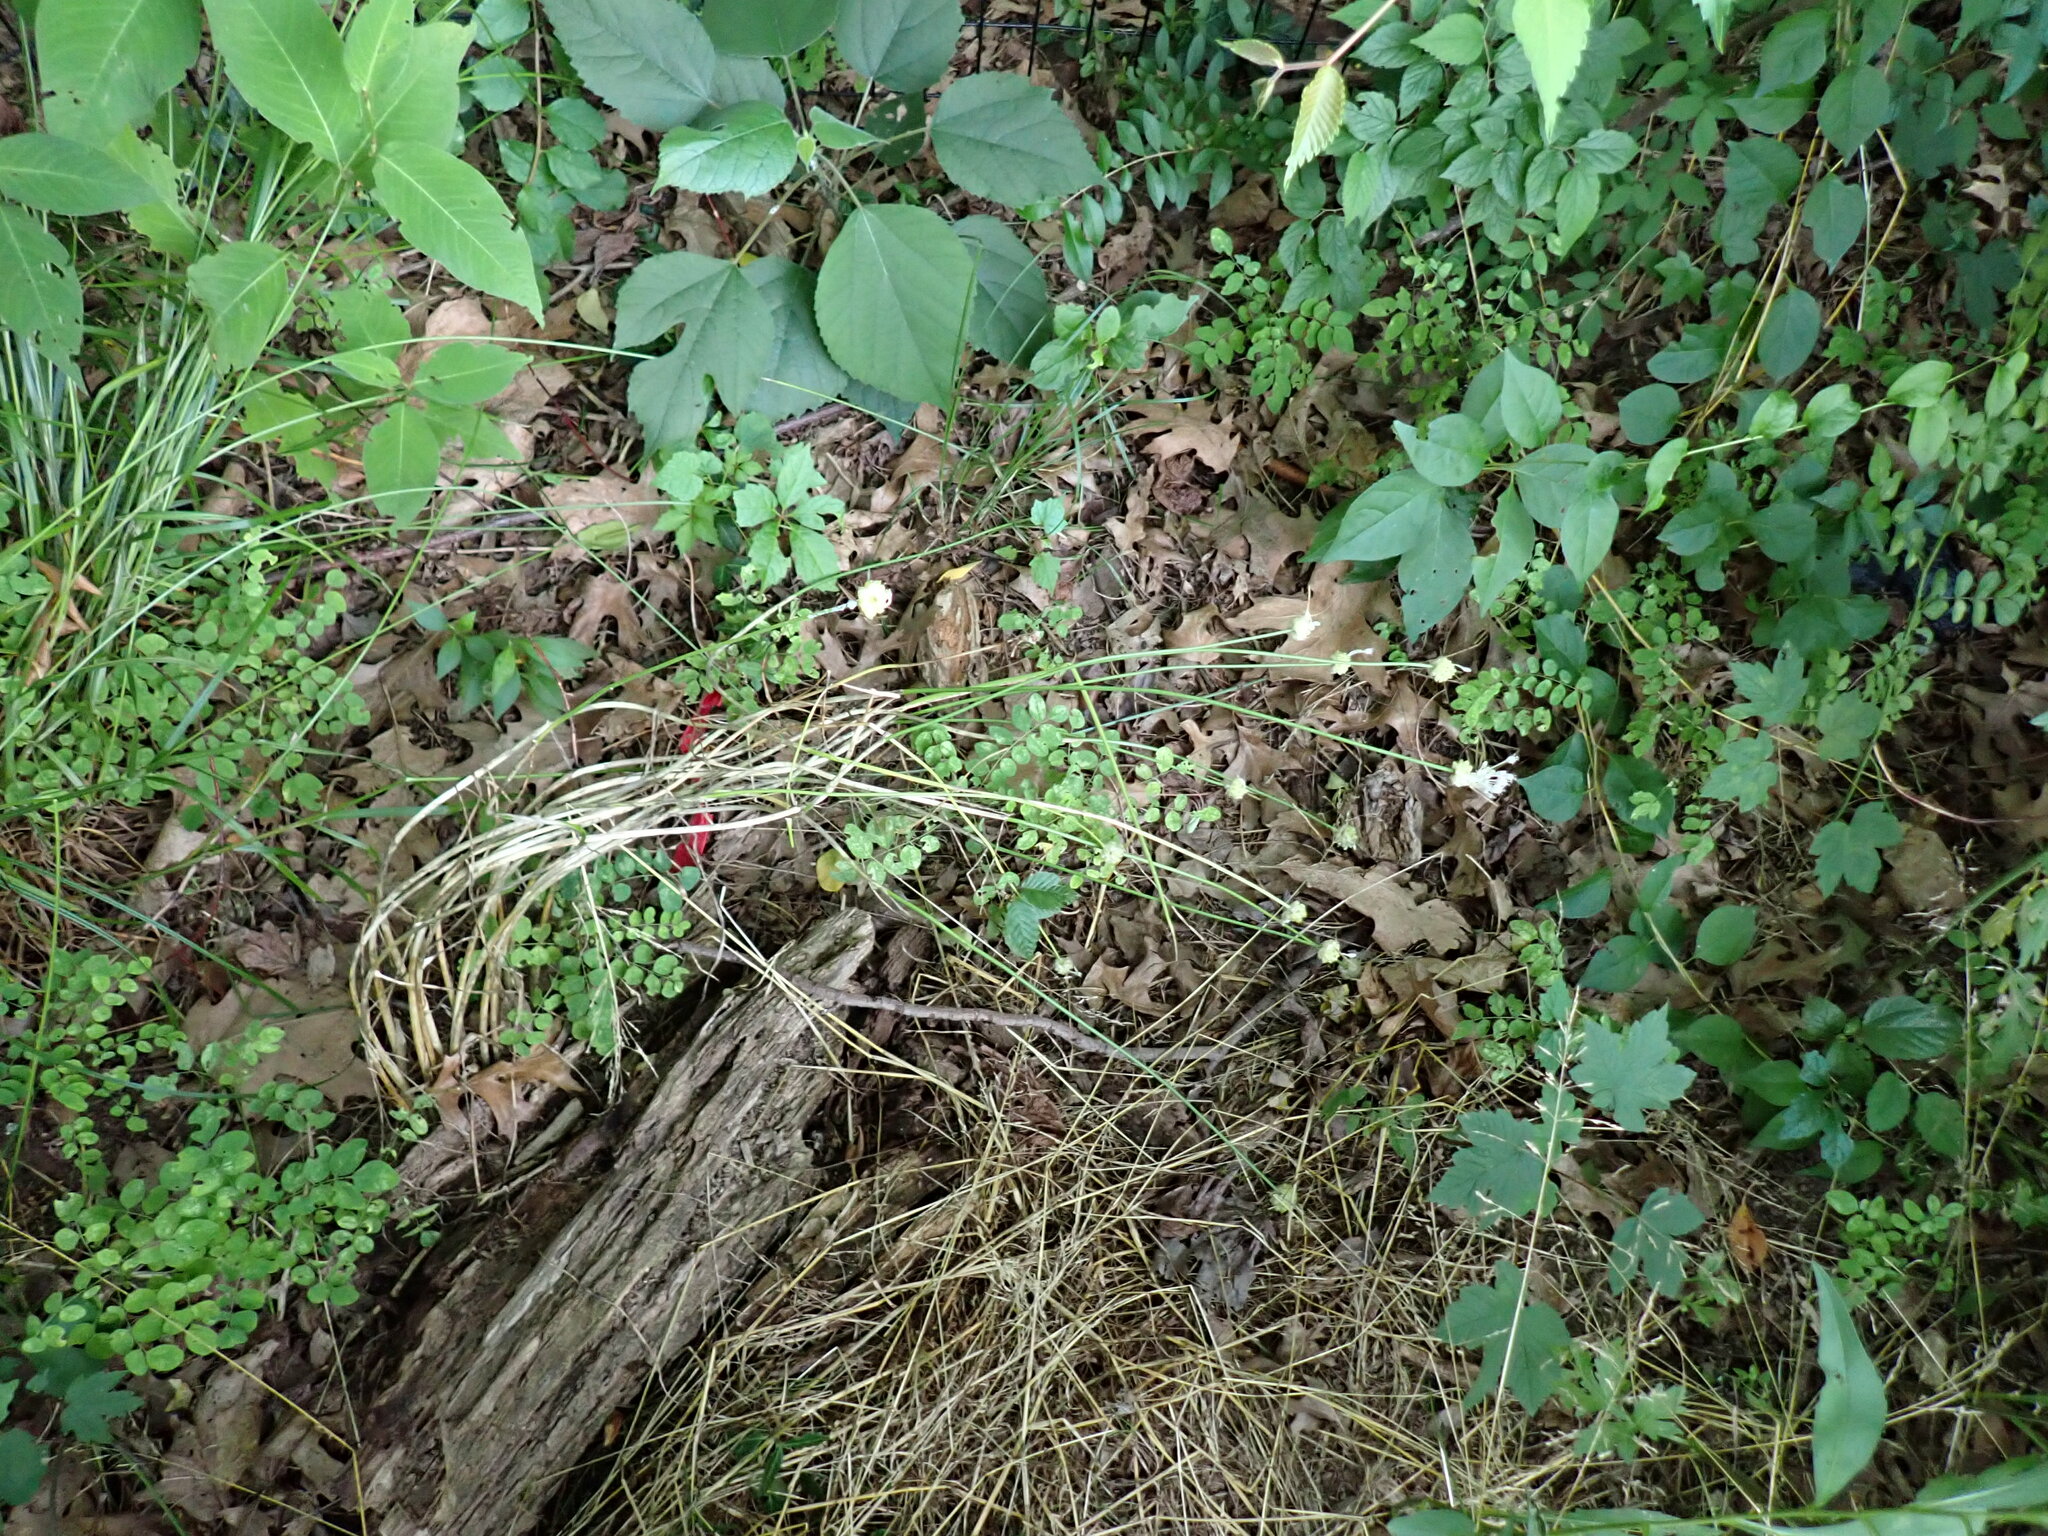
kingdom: Plantae
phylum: Tracheophyta
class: Liliopsida
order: Asparagales
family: Amaryllidaceae
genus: Allium
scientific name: Allium vineale
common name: Crow garlic
